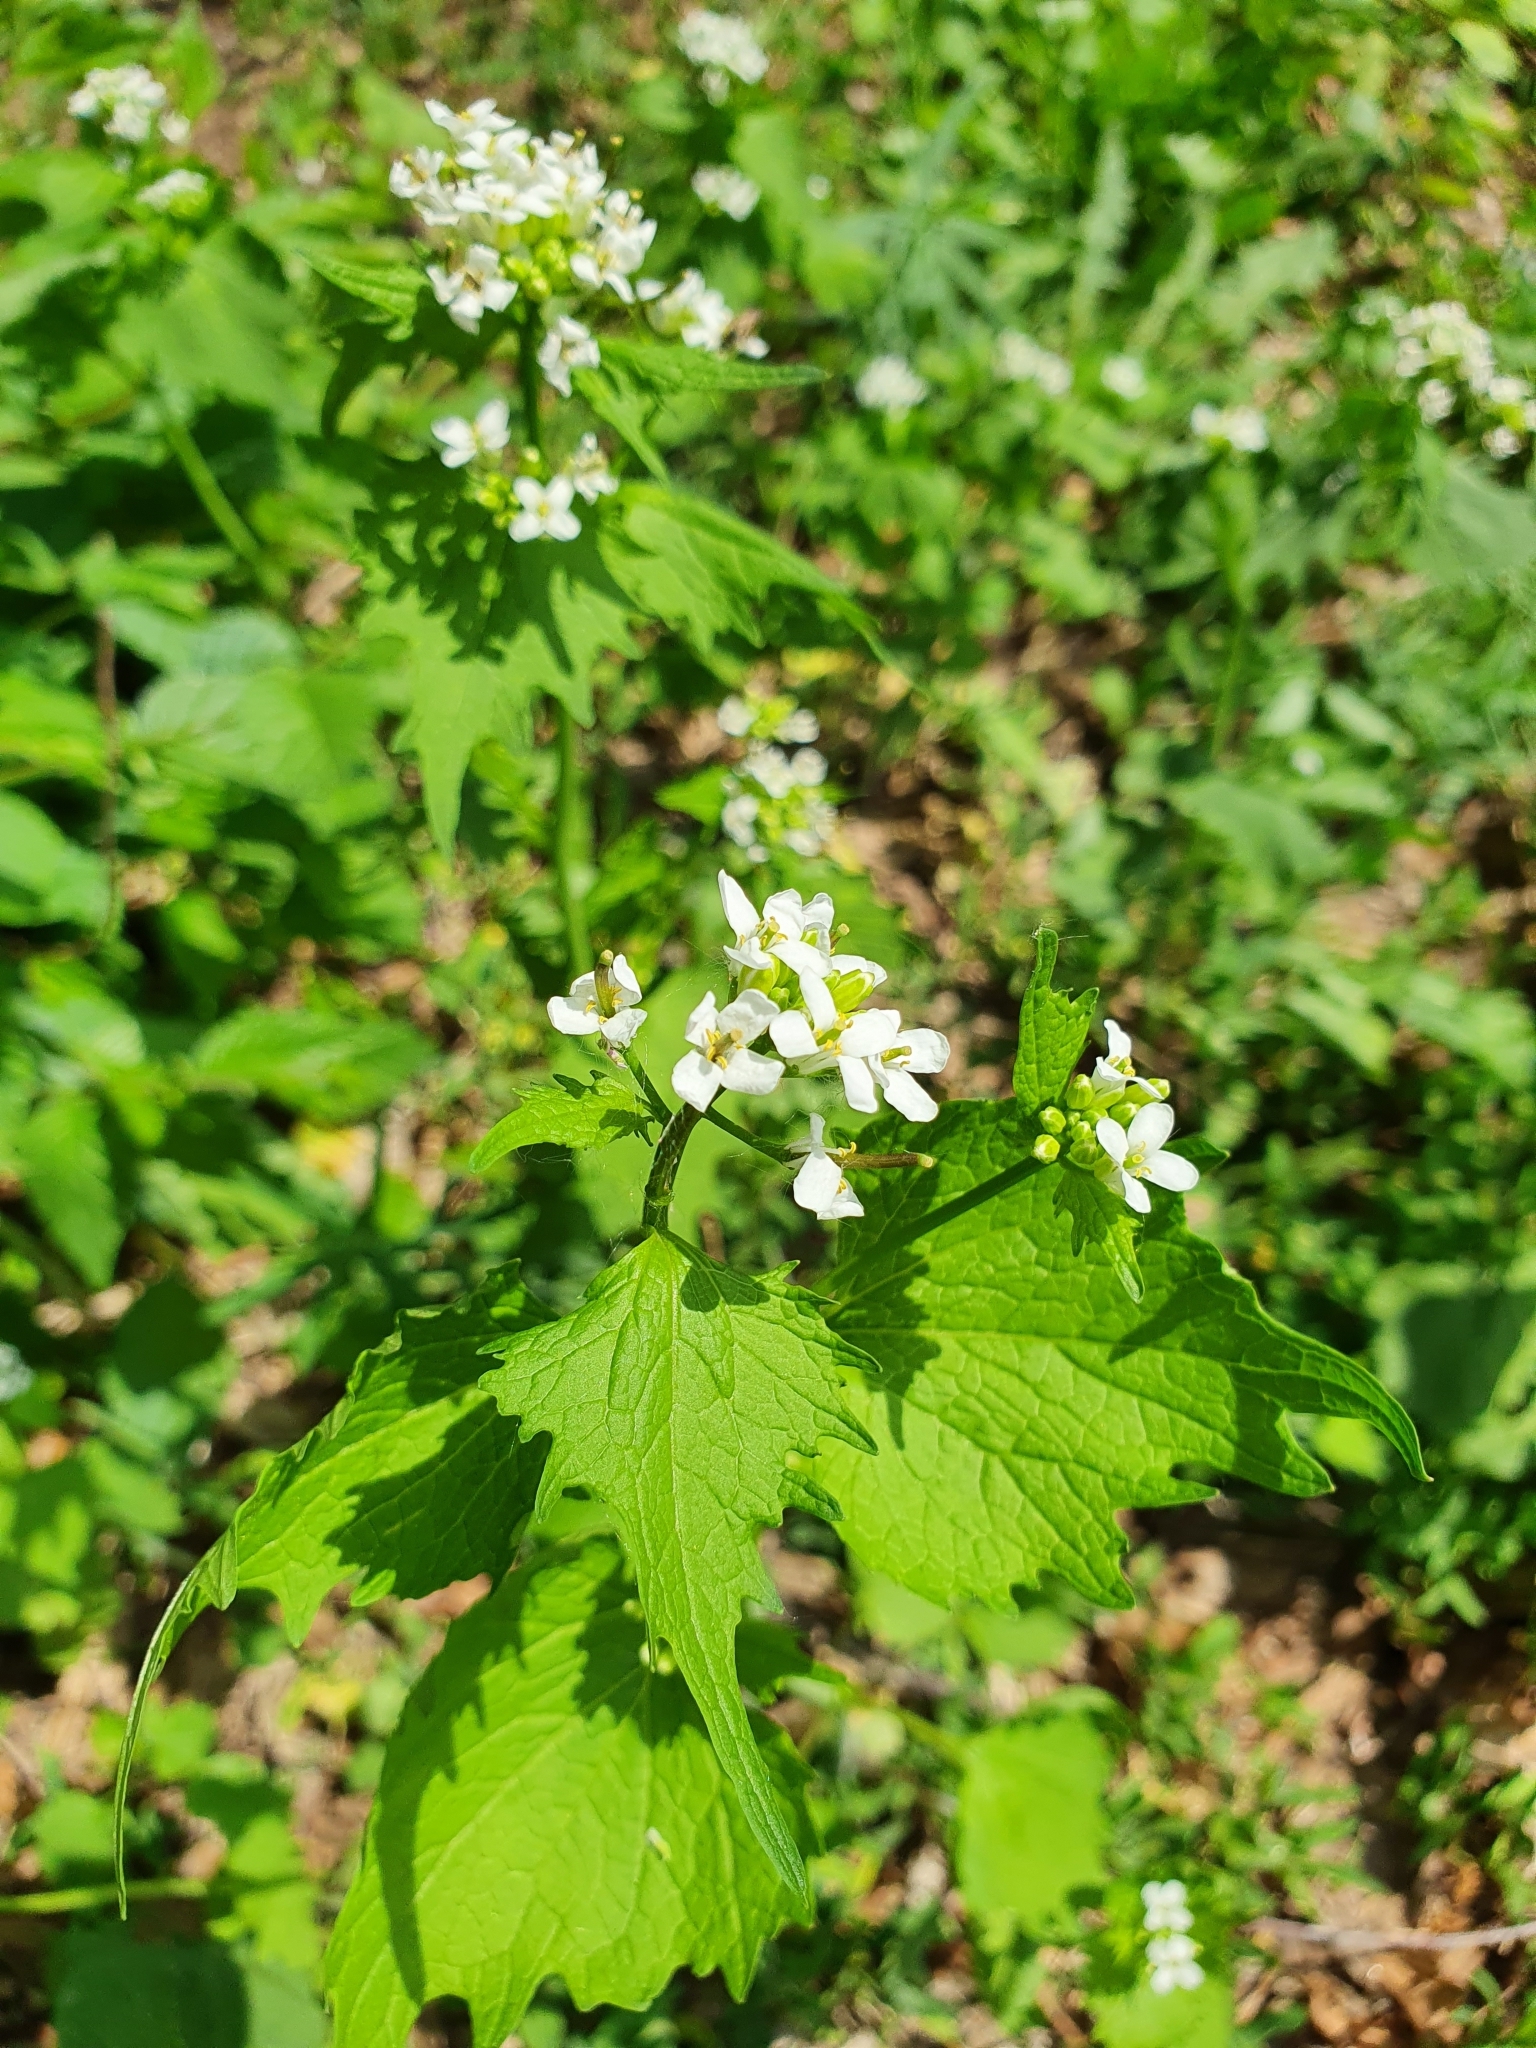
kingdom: Plantae
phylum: Tracheophyta
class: Magnoliopsida
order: Brassicales
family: Brassicaceae
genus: Alliaria
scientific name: Alliaria petiolata
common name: Garlic mustard
